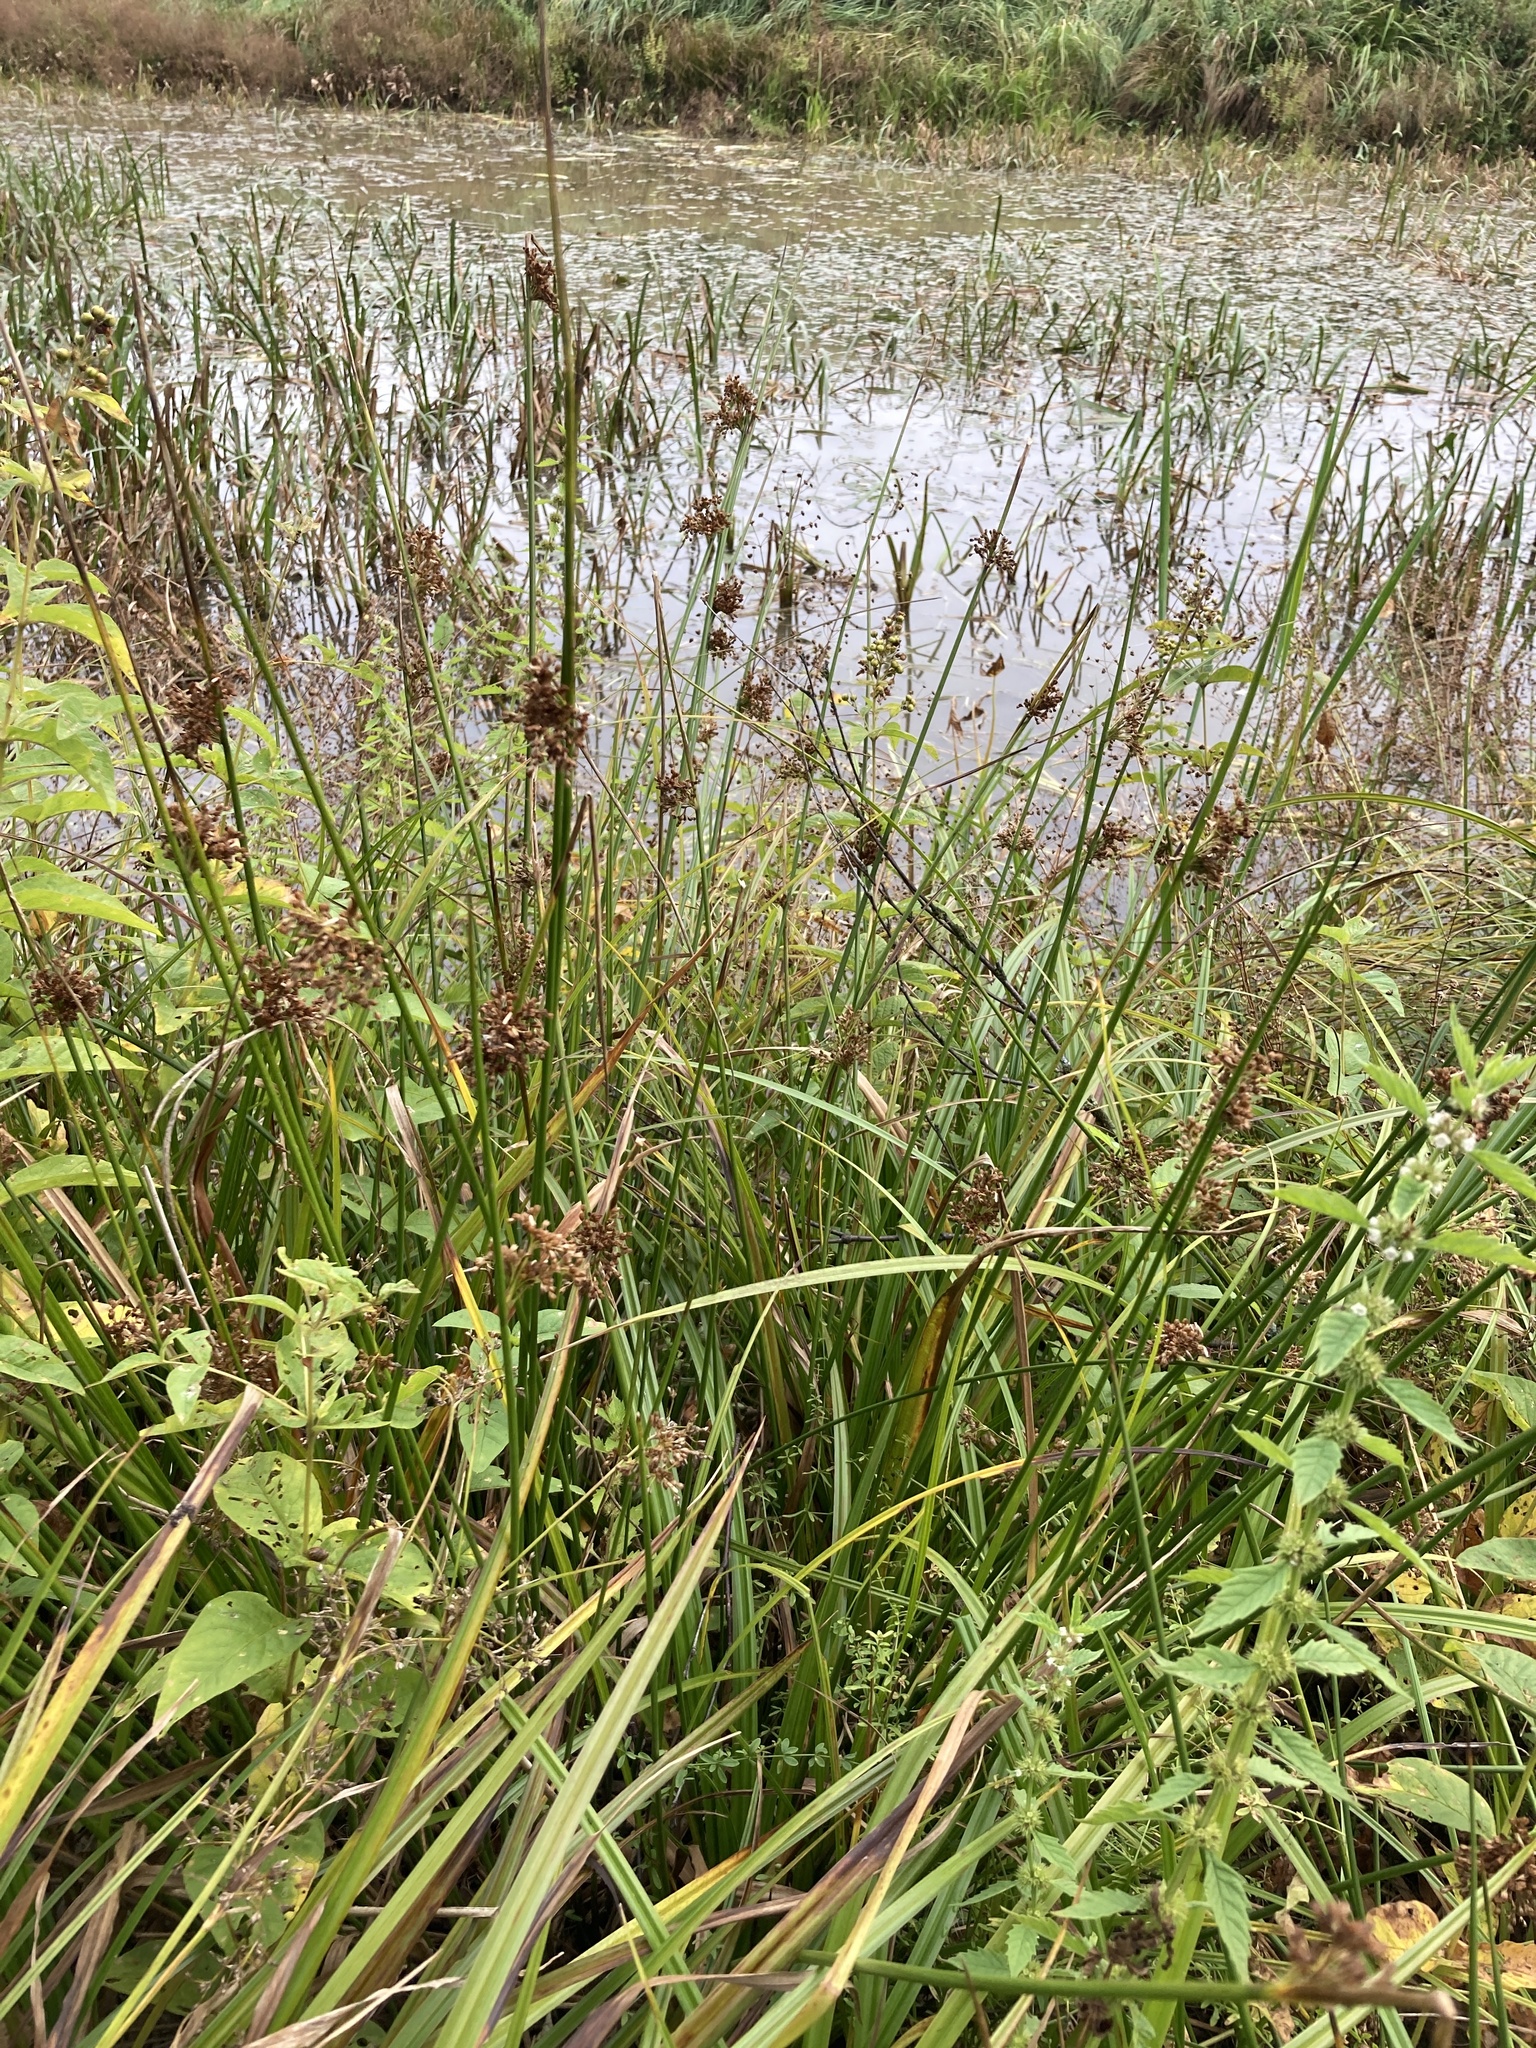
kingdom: Plantae
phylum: Tracheophyta
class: Liliopsida
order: Poales
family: Juncaceae
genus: Juncus
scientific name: Juncus effusus
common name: Soft rush
